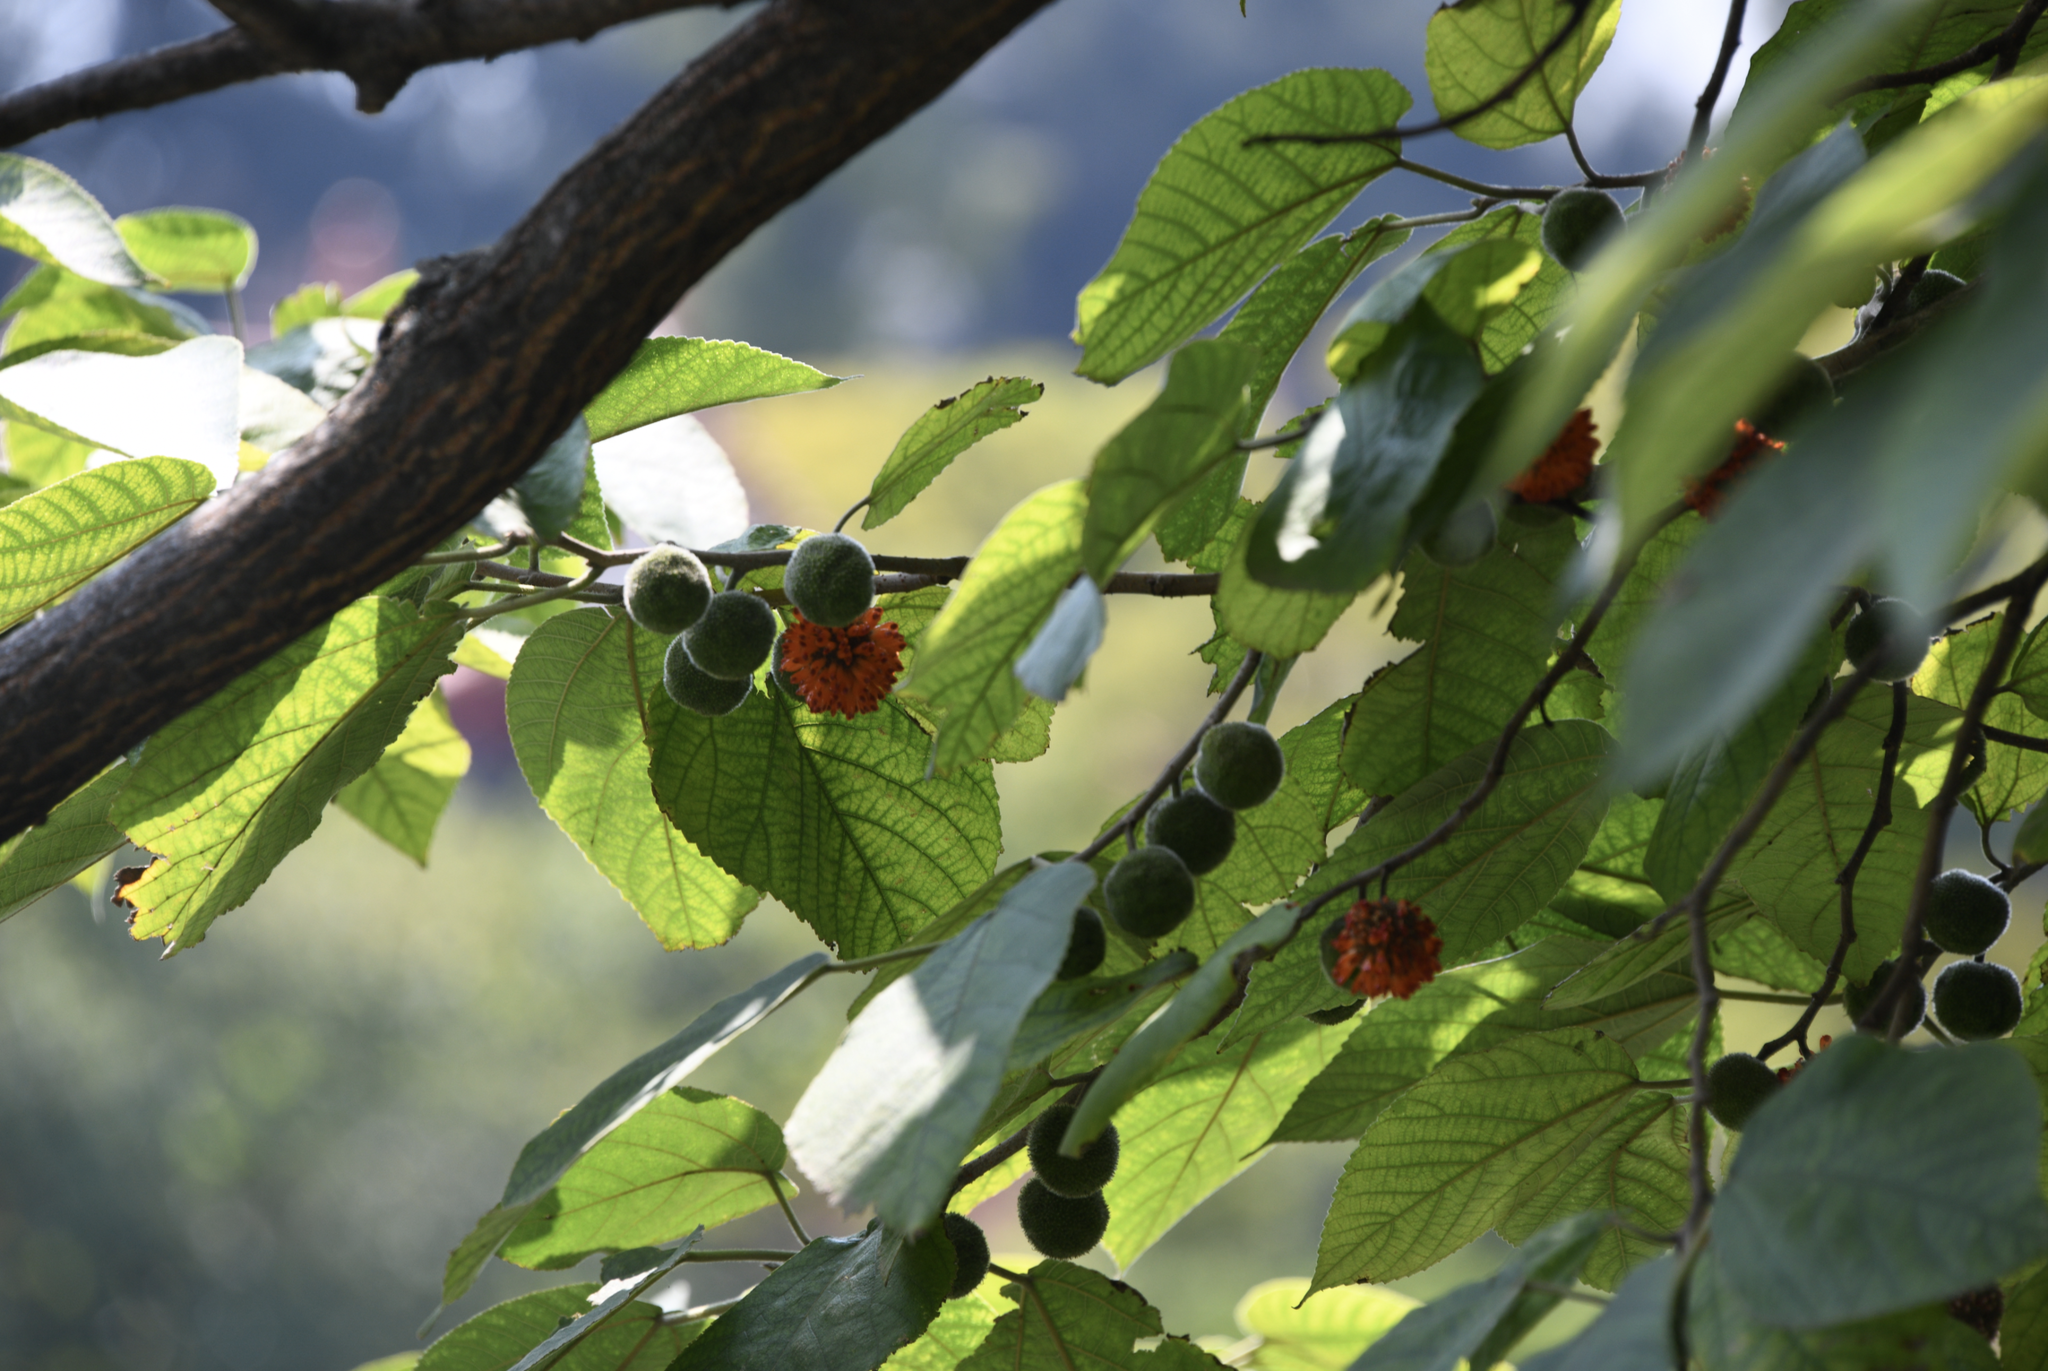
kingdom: Plantae
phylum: Tracheophyta
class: Magnoliopsida
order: Rosales
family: Moraceae
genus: Broussonetia
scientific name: Broussonetia papyrifera
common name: Paper mulberry
